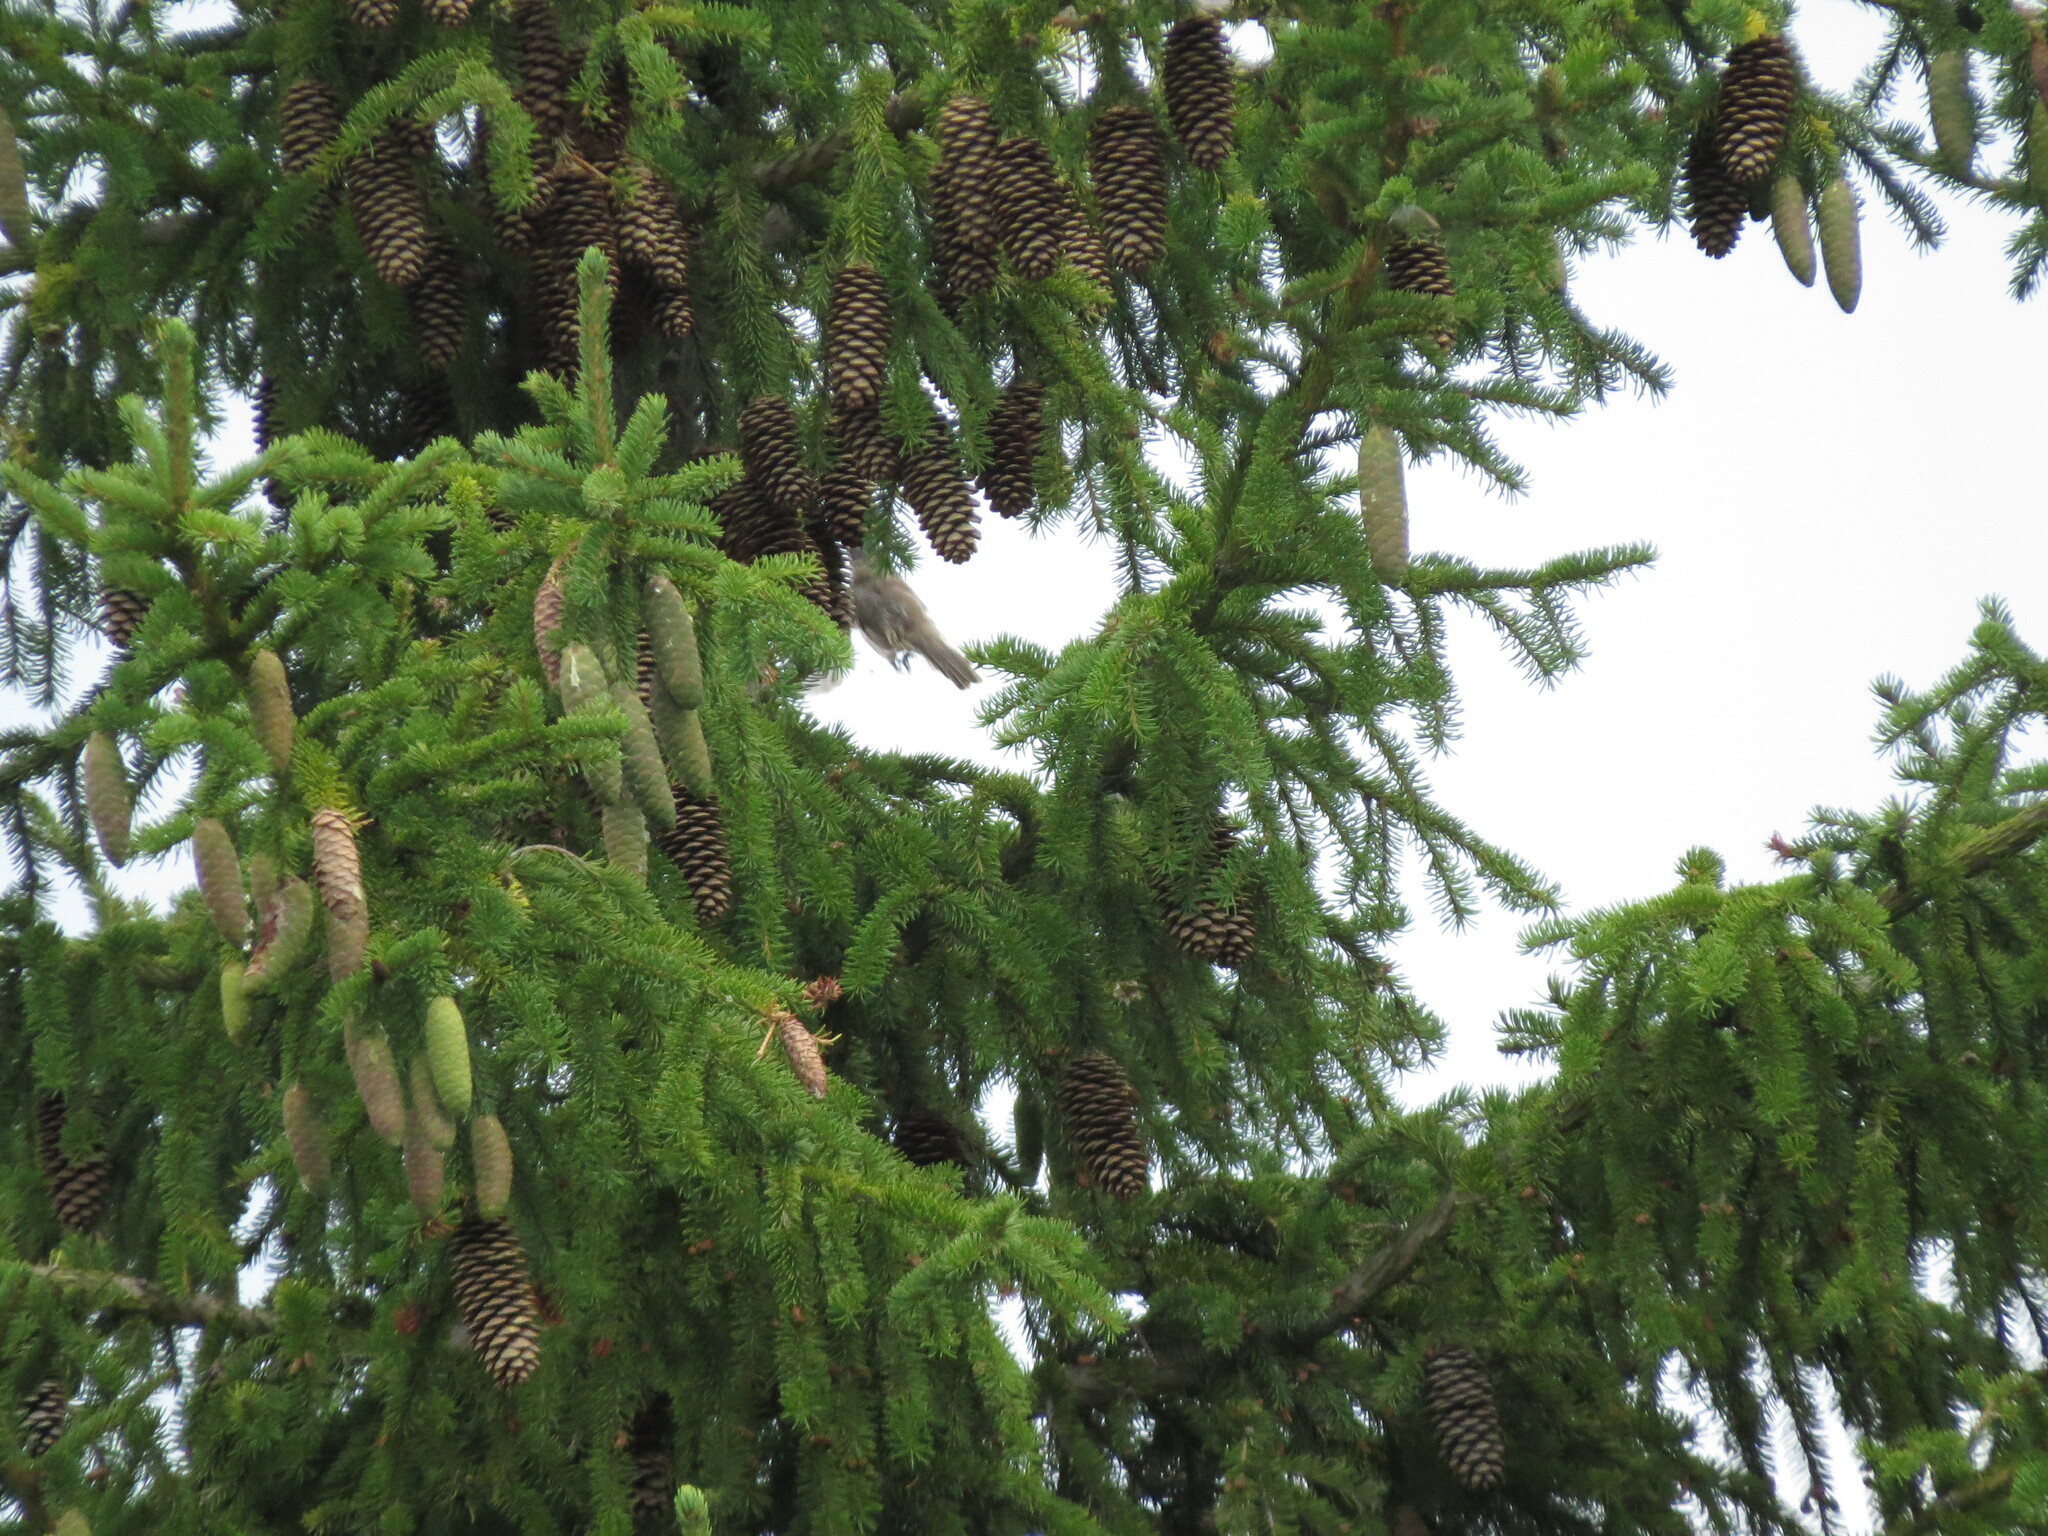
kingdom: Animalia
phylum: Chordata
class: Aves
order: Passeriformes
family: Sylviidae
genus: Sylvia
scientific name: Sylvia curruca
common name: Lesser whitethroat
